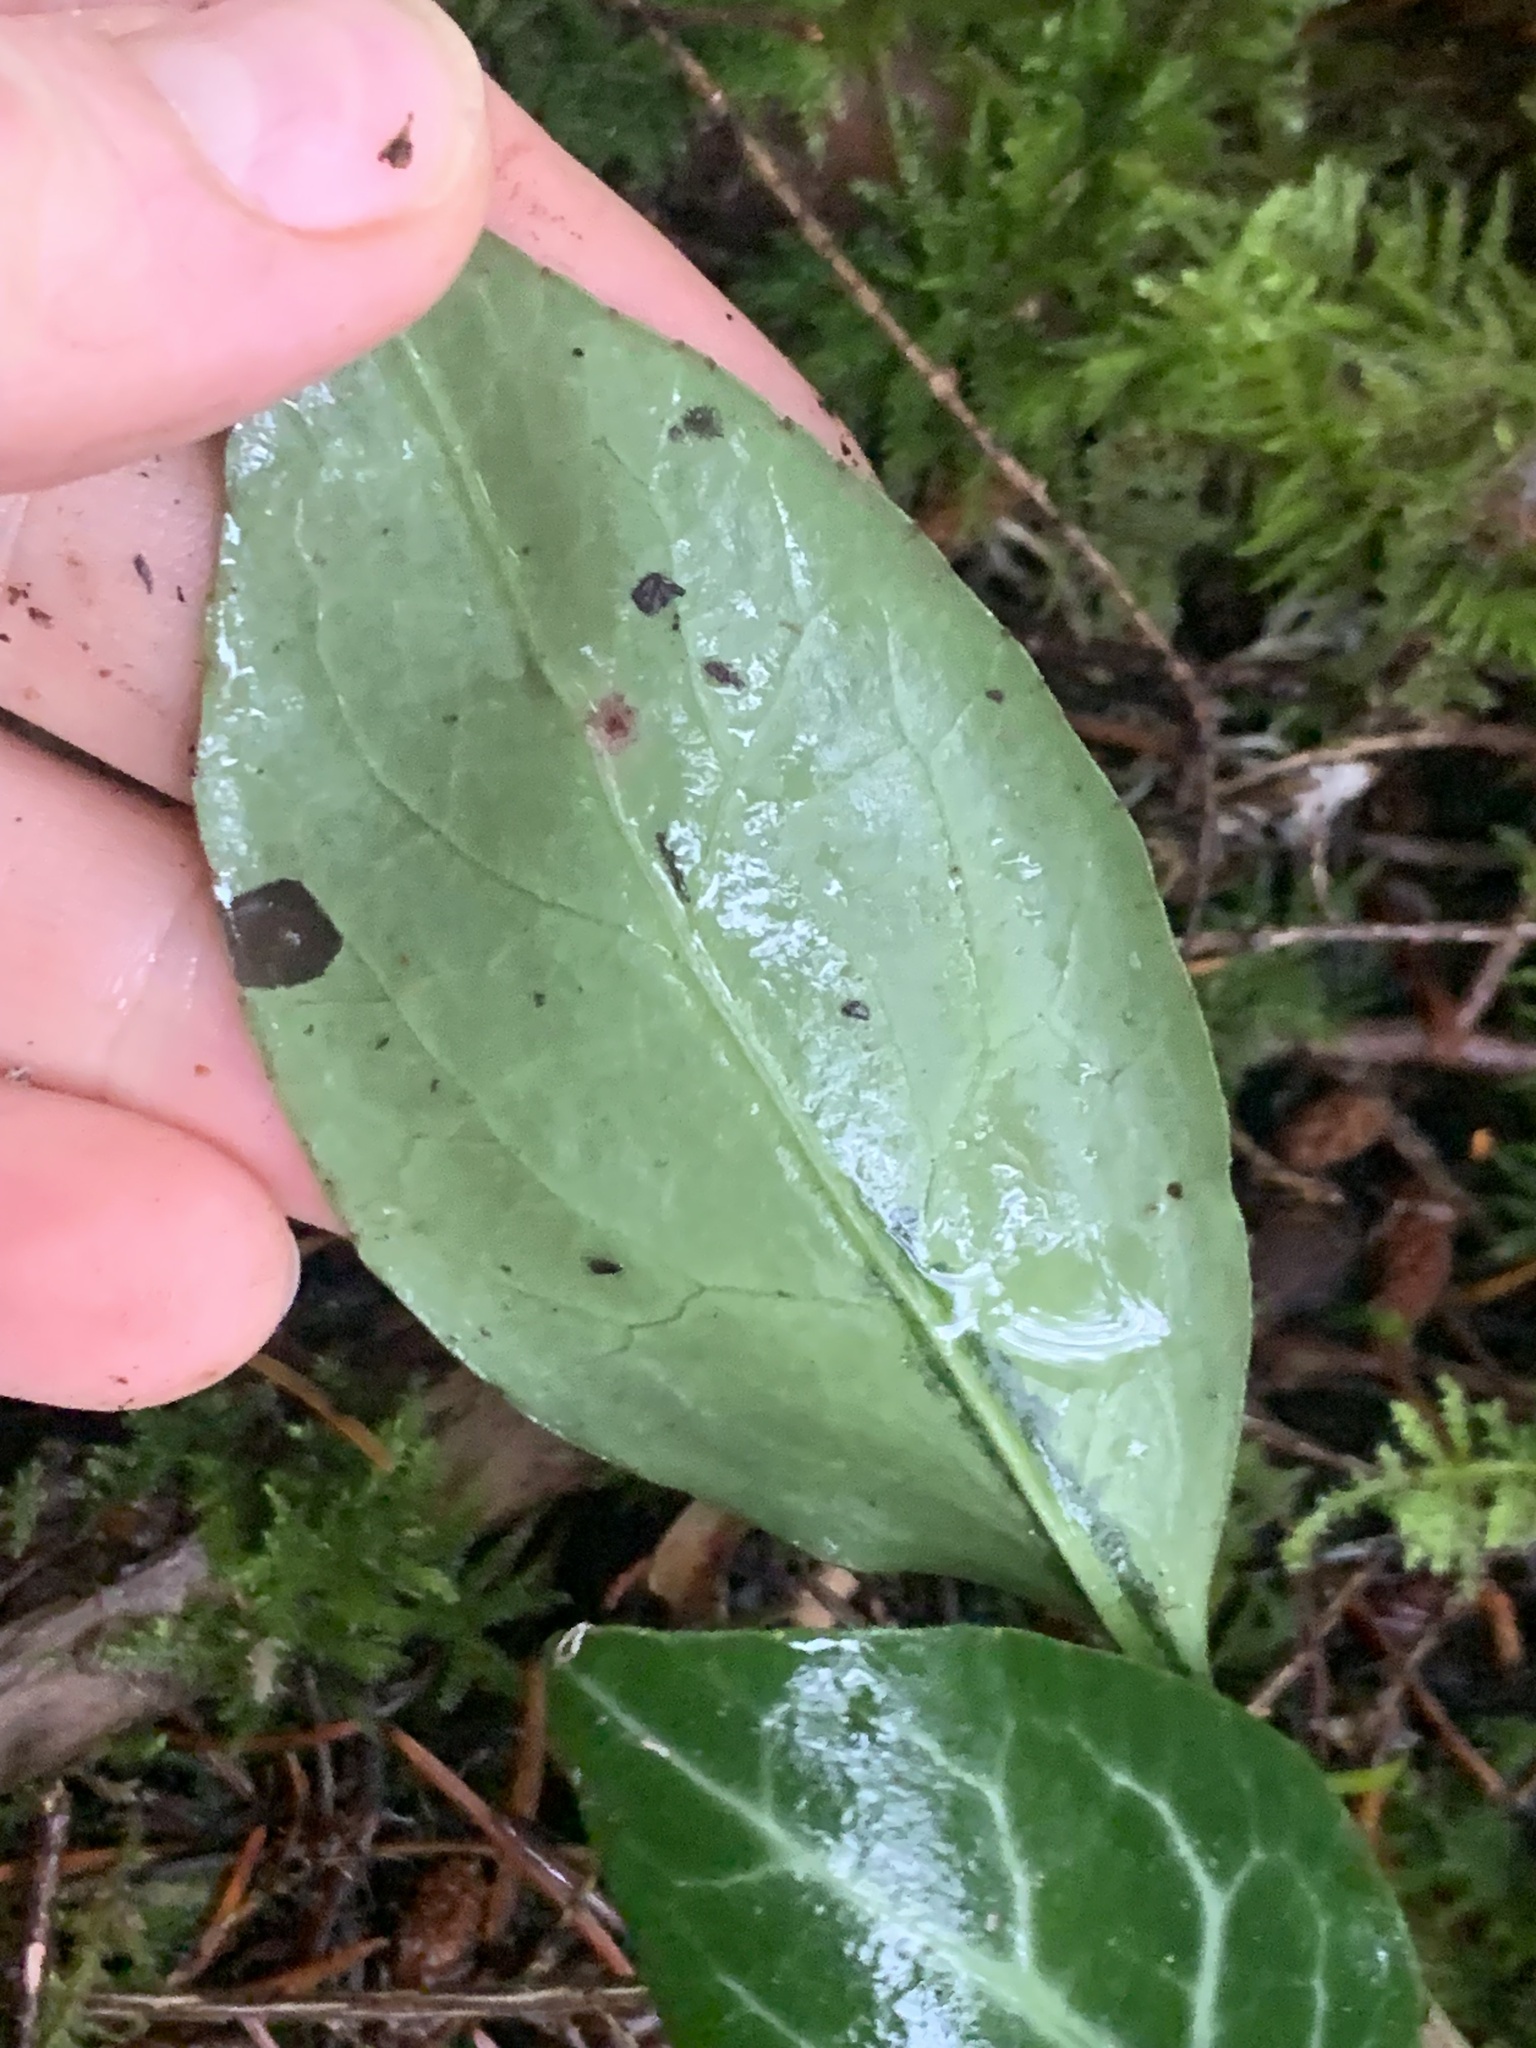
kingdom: Plantae
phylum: Tracheophyta
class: Magnoliopsida
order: Ericales
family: Ericaceae
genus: Pyrola
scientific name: Pyrola picta
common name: White-vein wintergreen
